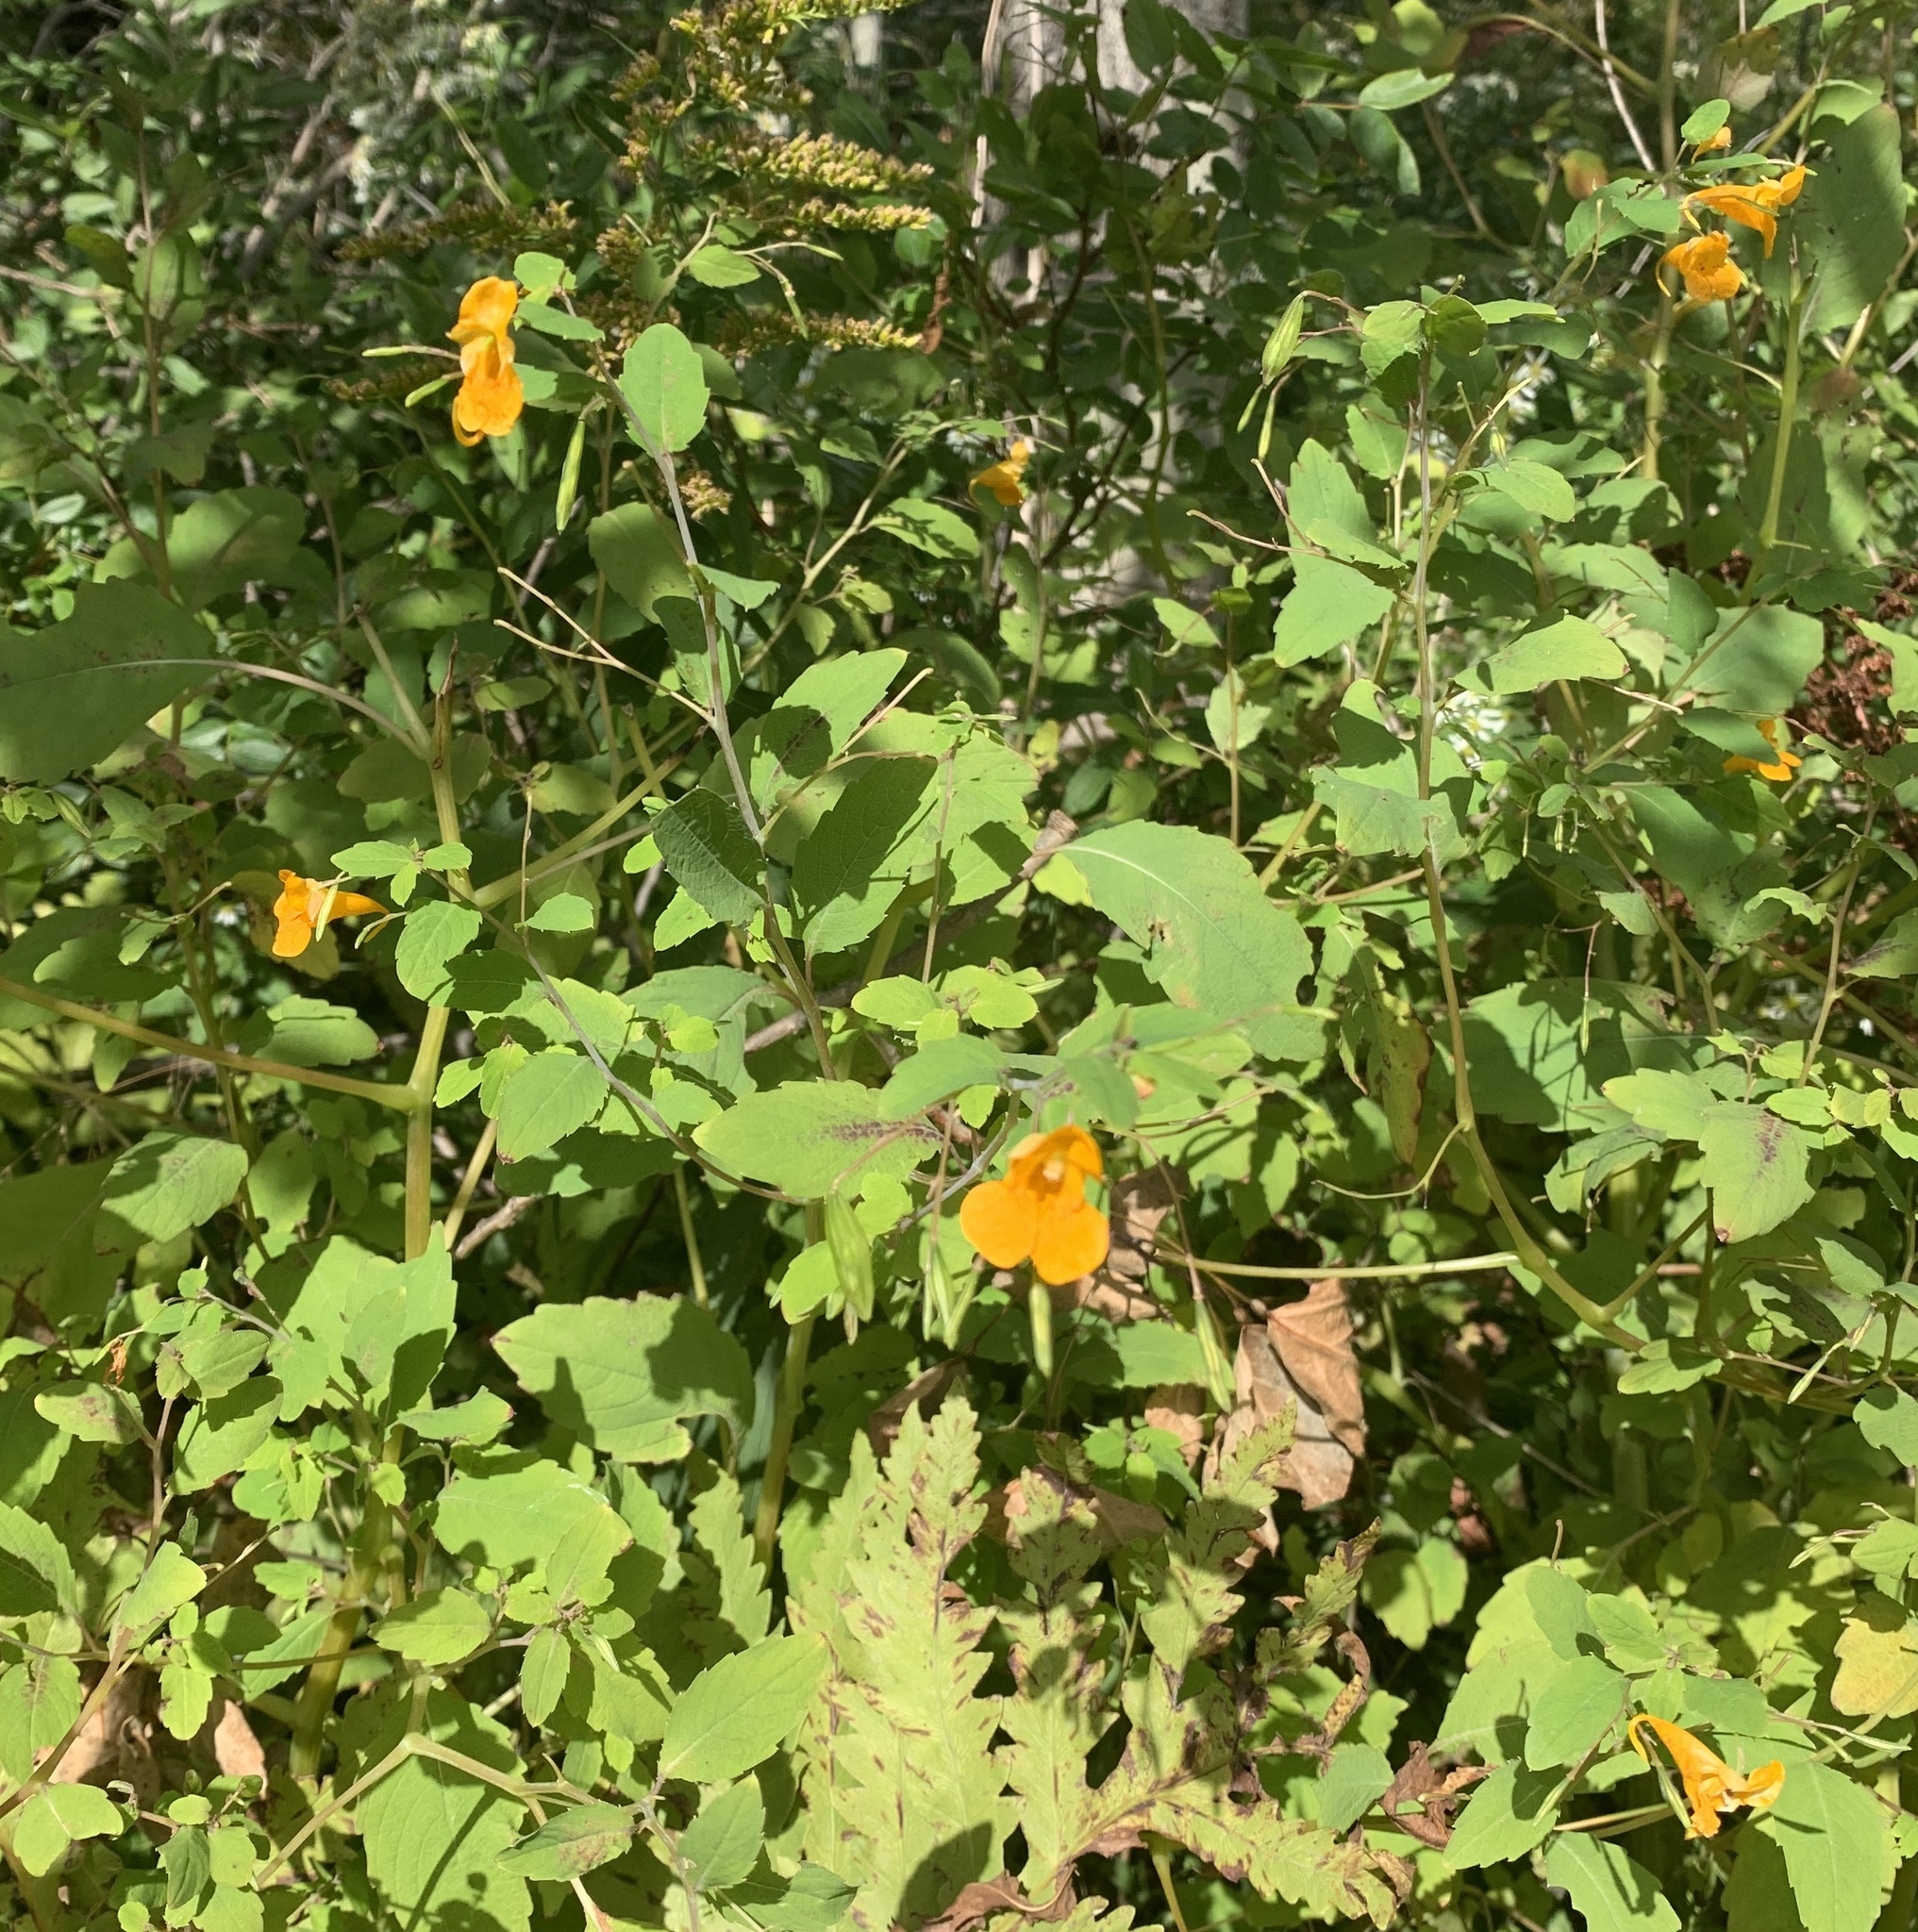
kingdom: Plantae
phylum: Tracheophyta
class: Magnoliopsida
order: Ericales
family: Balsaminaceae
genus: Impatiens
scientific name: Impatiens capensis
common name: Orange balsam
